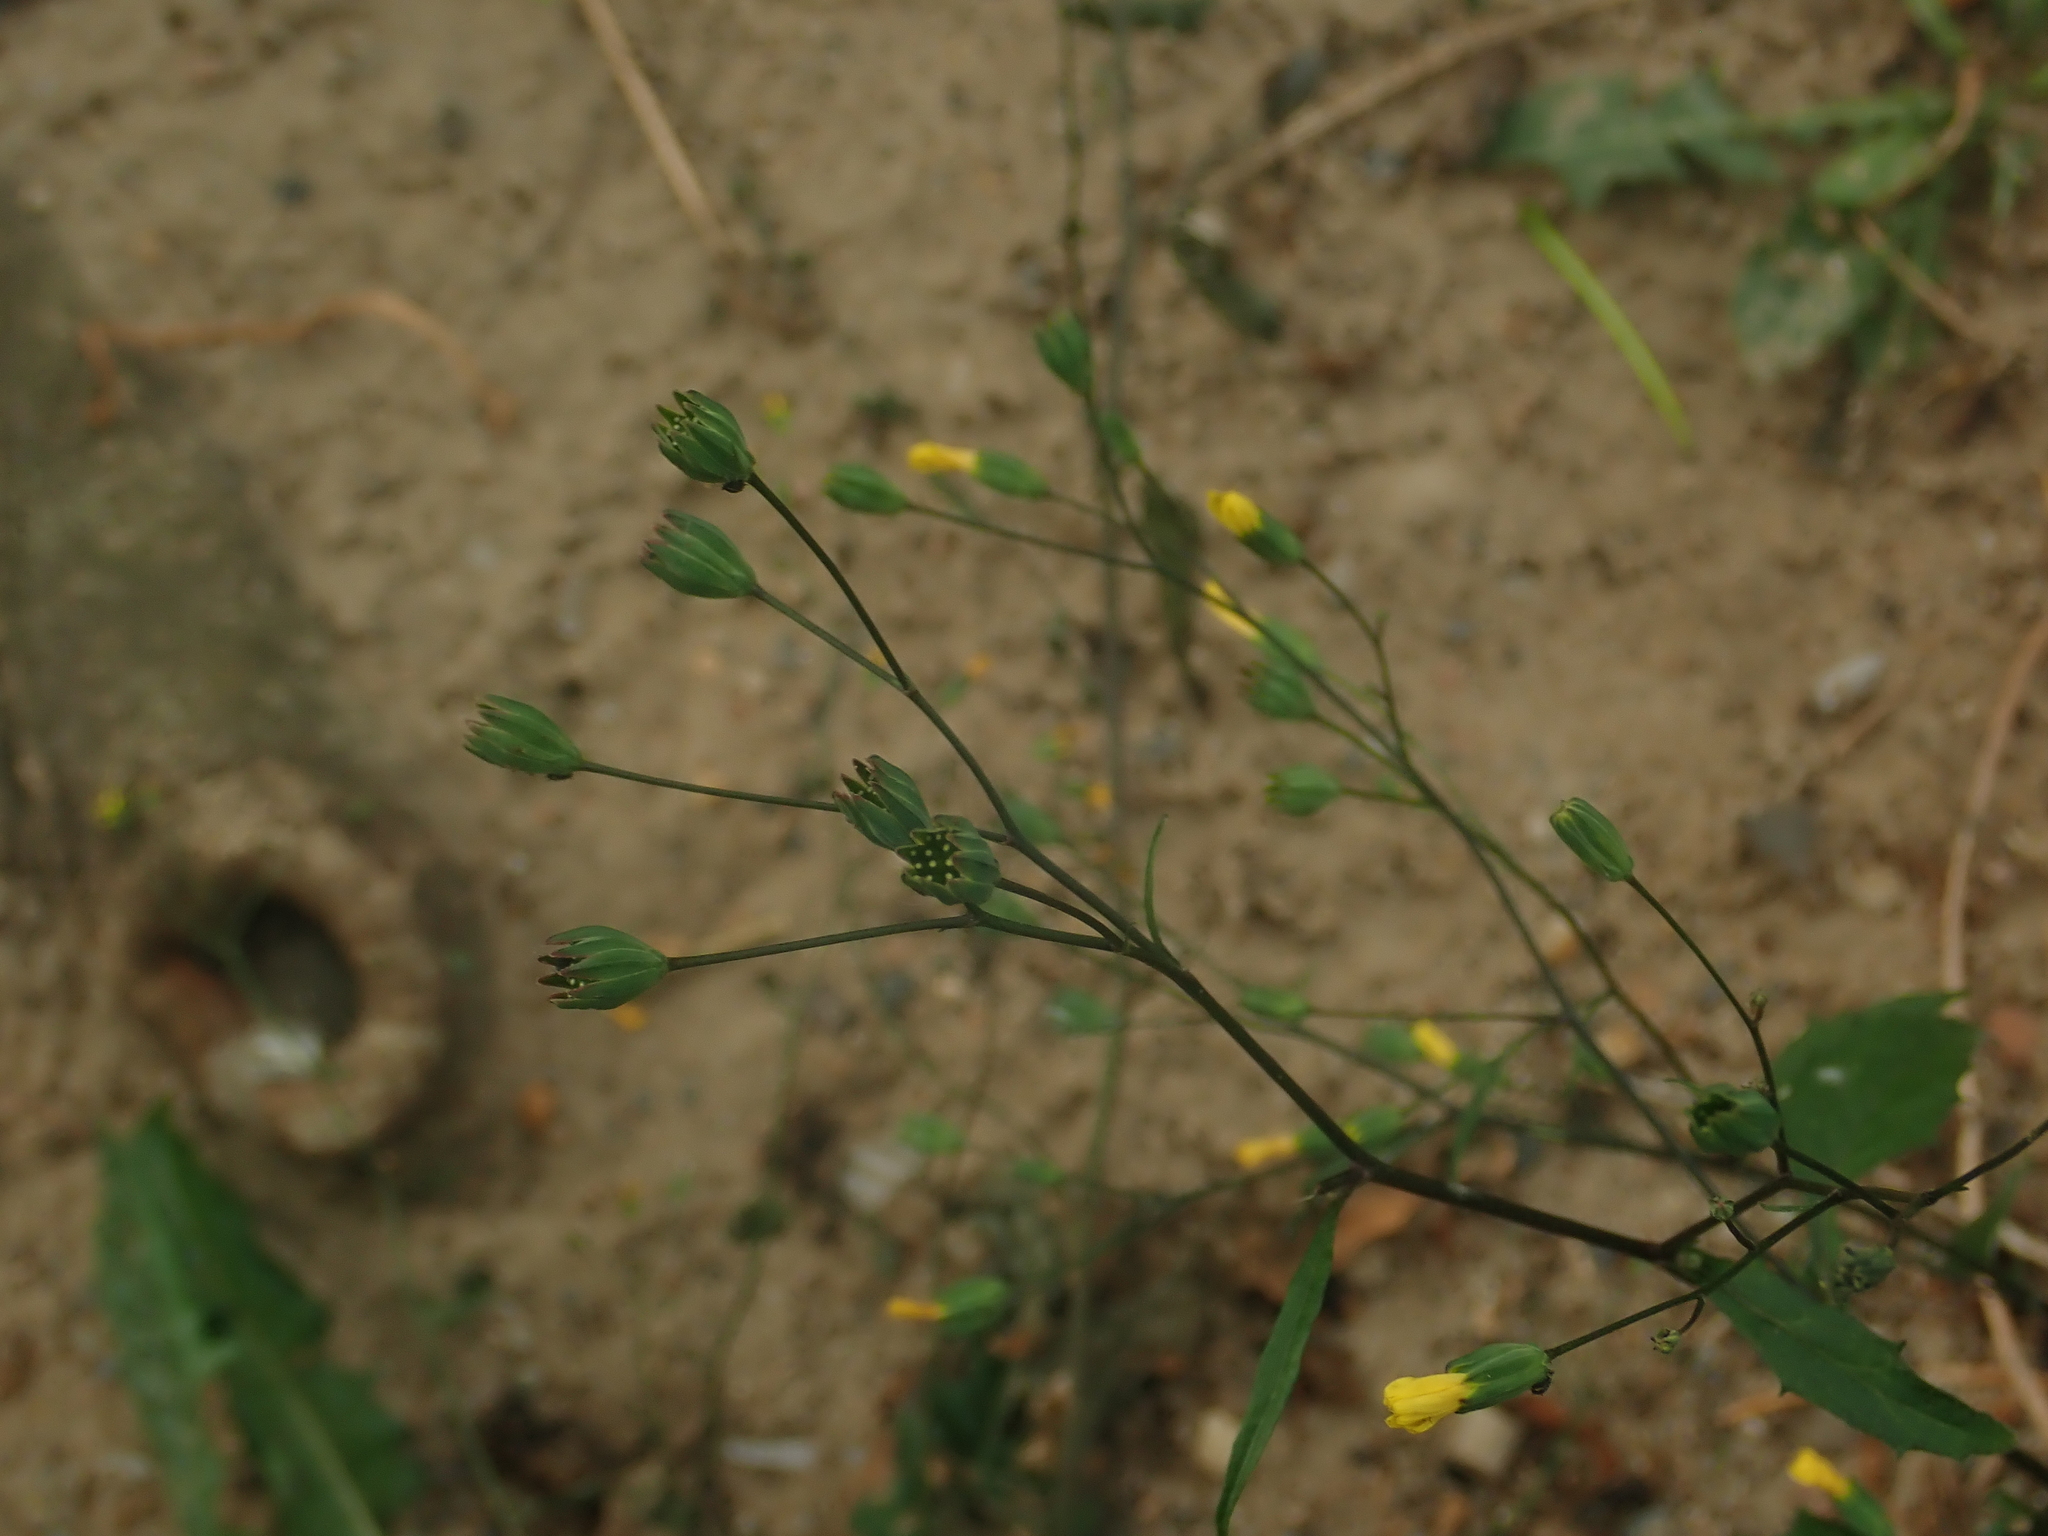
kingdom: Plantae
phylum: Tracheophyta
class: Magnoliopsida
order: Asterales
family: Asteraceae
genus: Lapsana
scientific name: Lapsana communis
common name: Nipplewort
